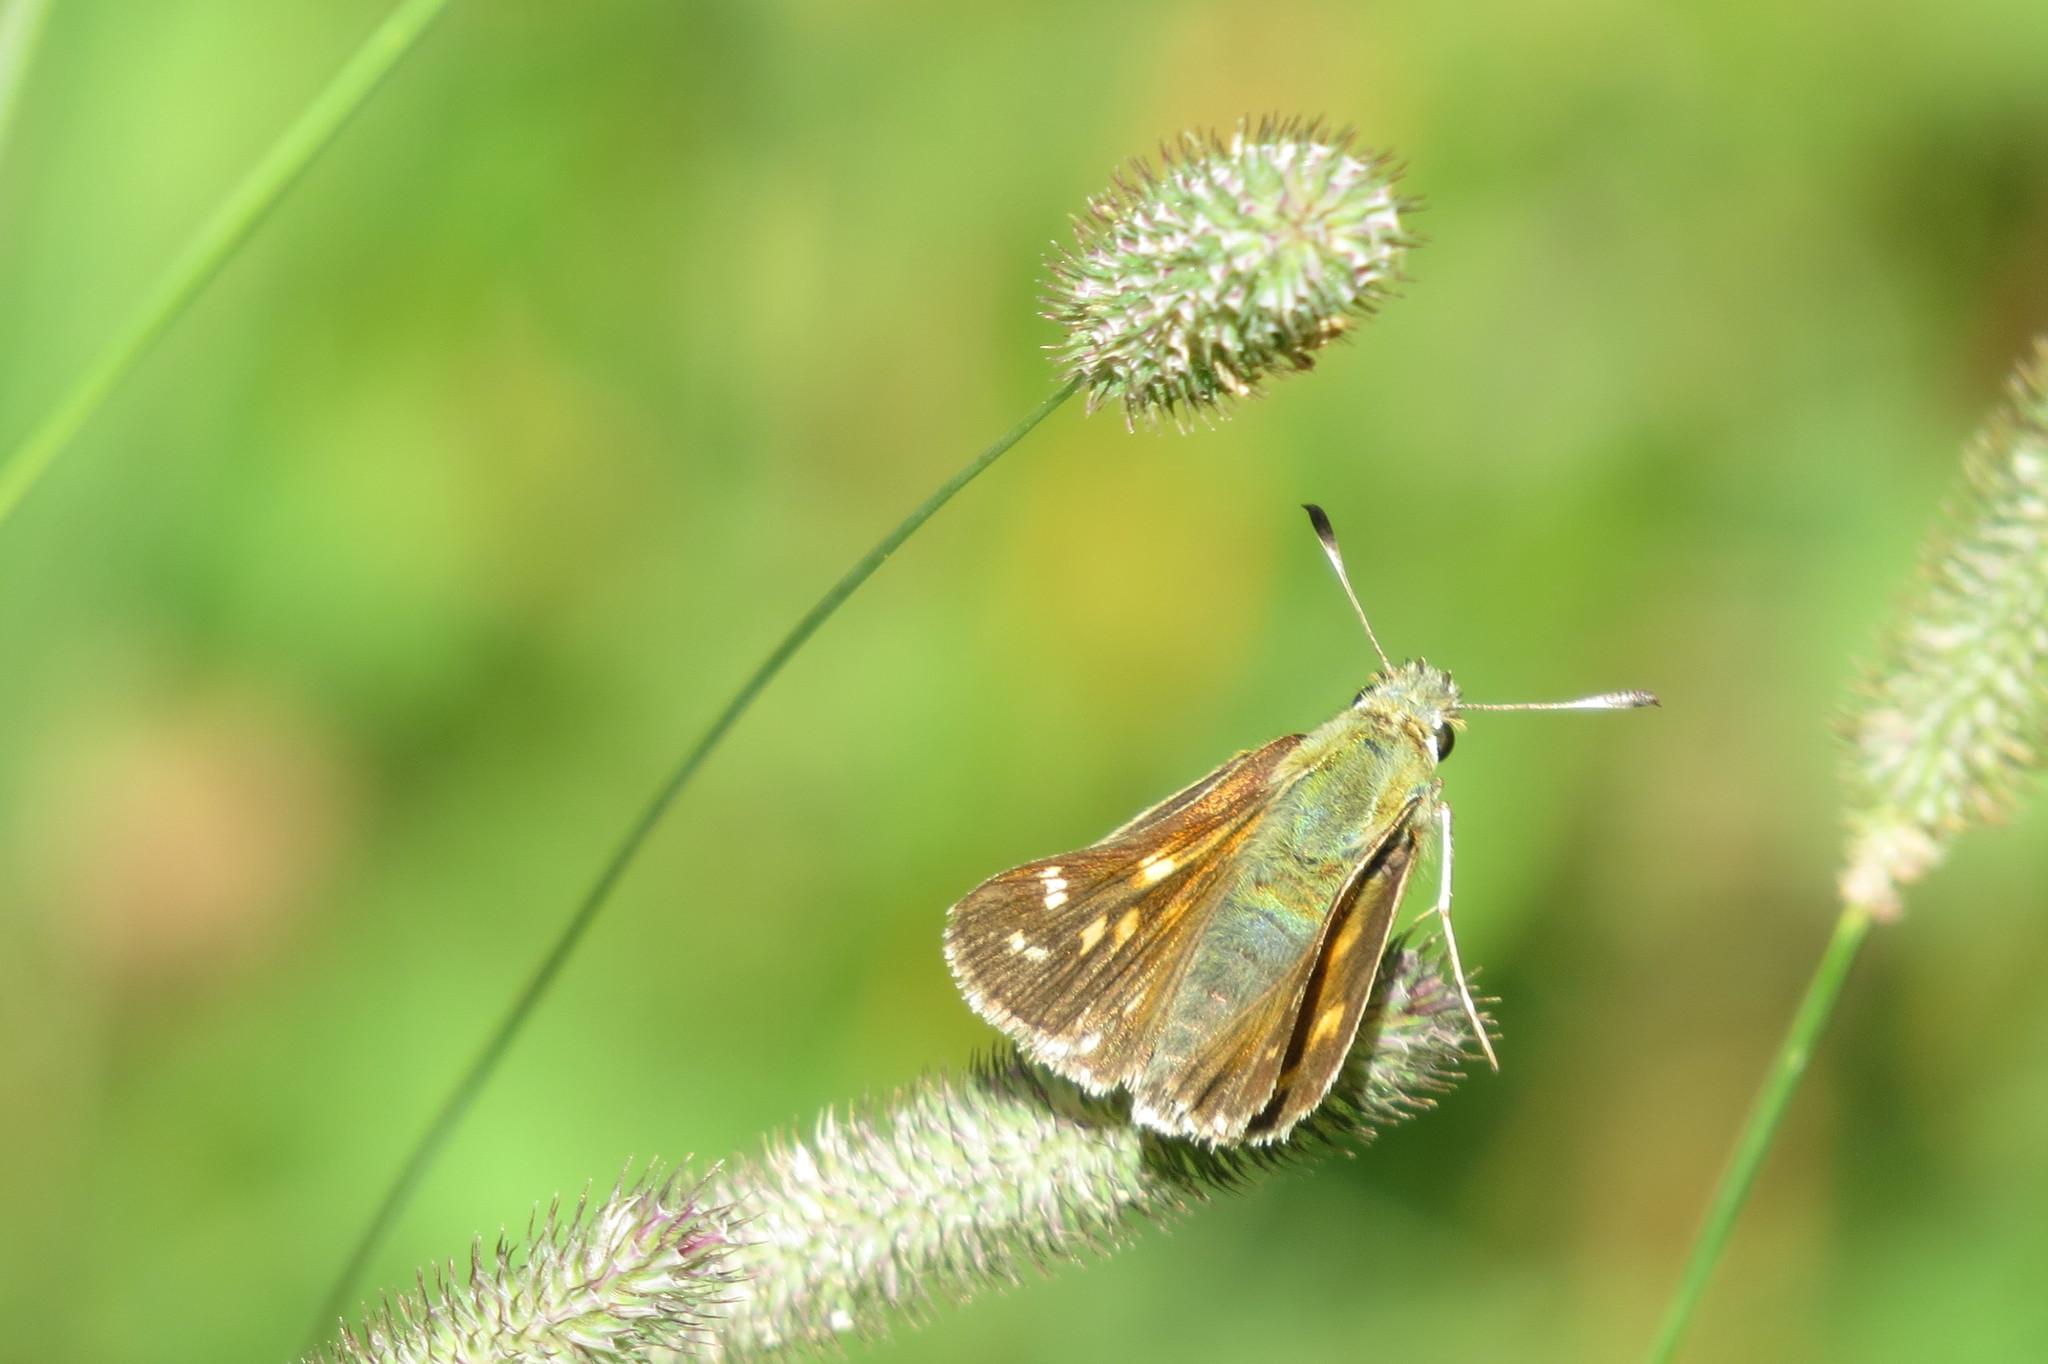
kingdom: Animalia
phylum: Arthropoda
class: Insecta
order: Lepidoptera
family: Hesperiidae
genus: Hesperia
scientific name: Hesperia comma
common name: Common branded skipper
